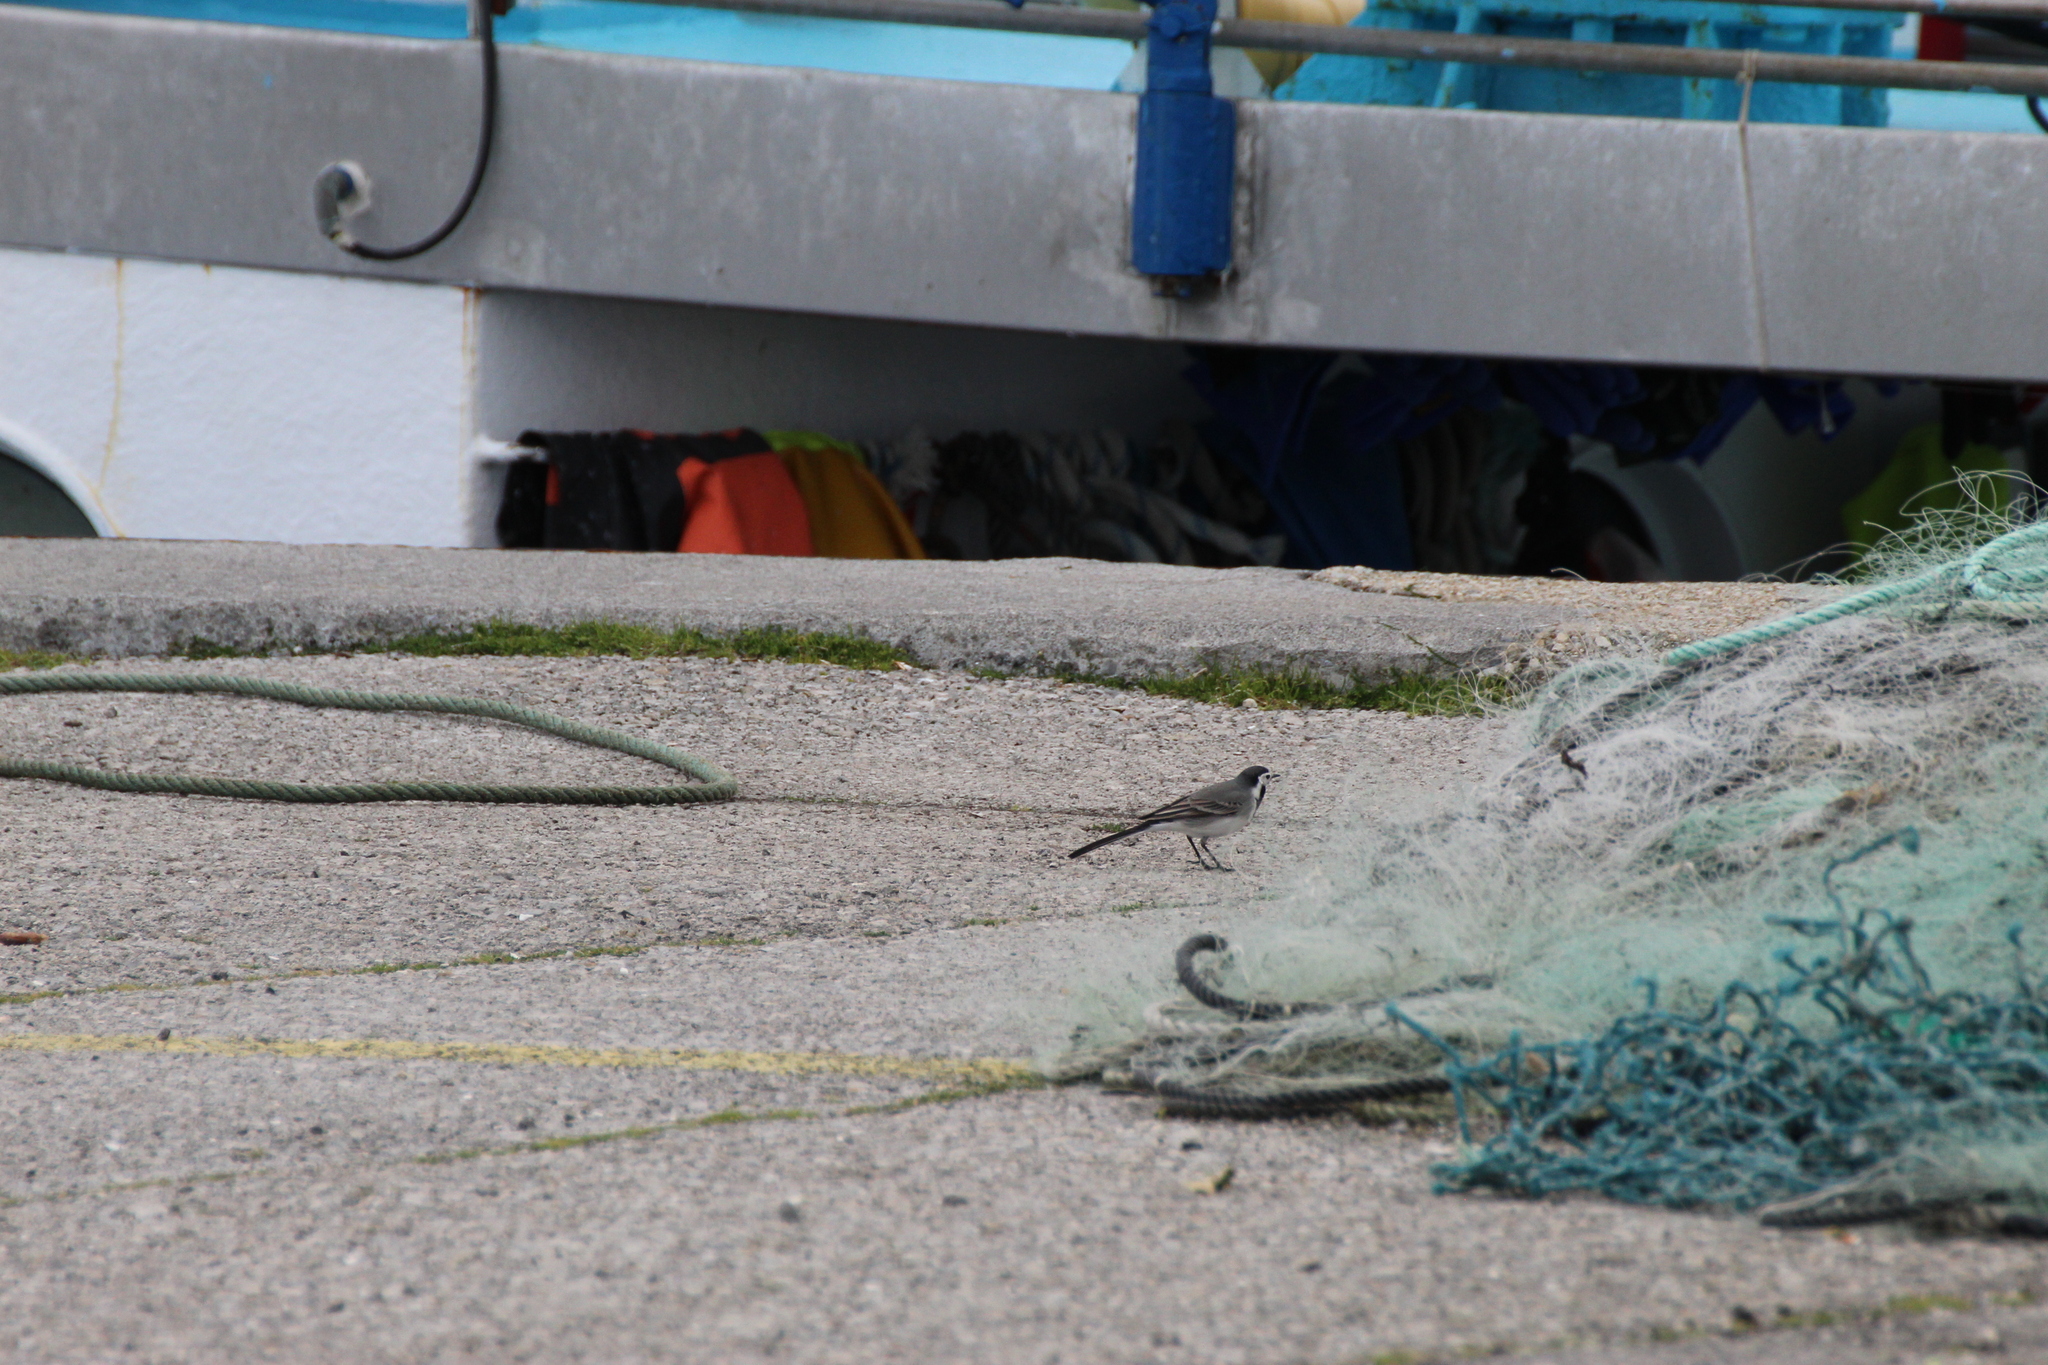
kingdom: Animalia
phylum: Chordata
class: Aves
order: Passeriformes
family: Motacillidae
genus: Motacilla
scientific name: Motacilla alba
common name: White wagtail
